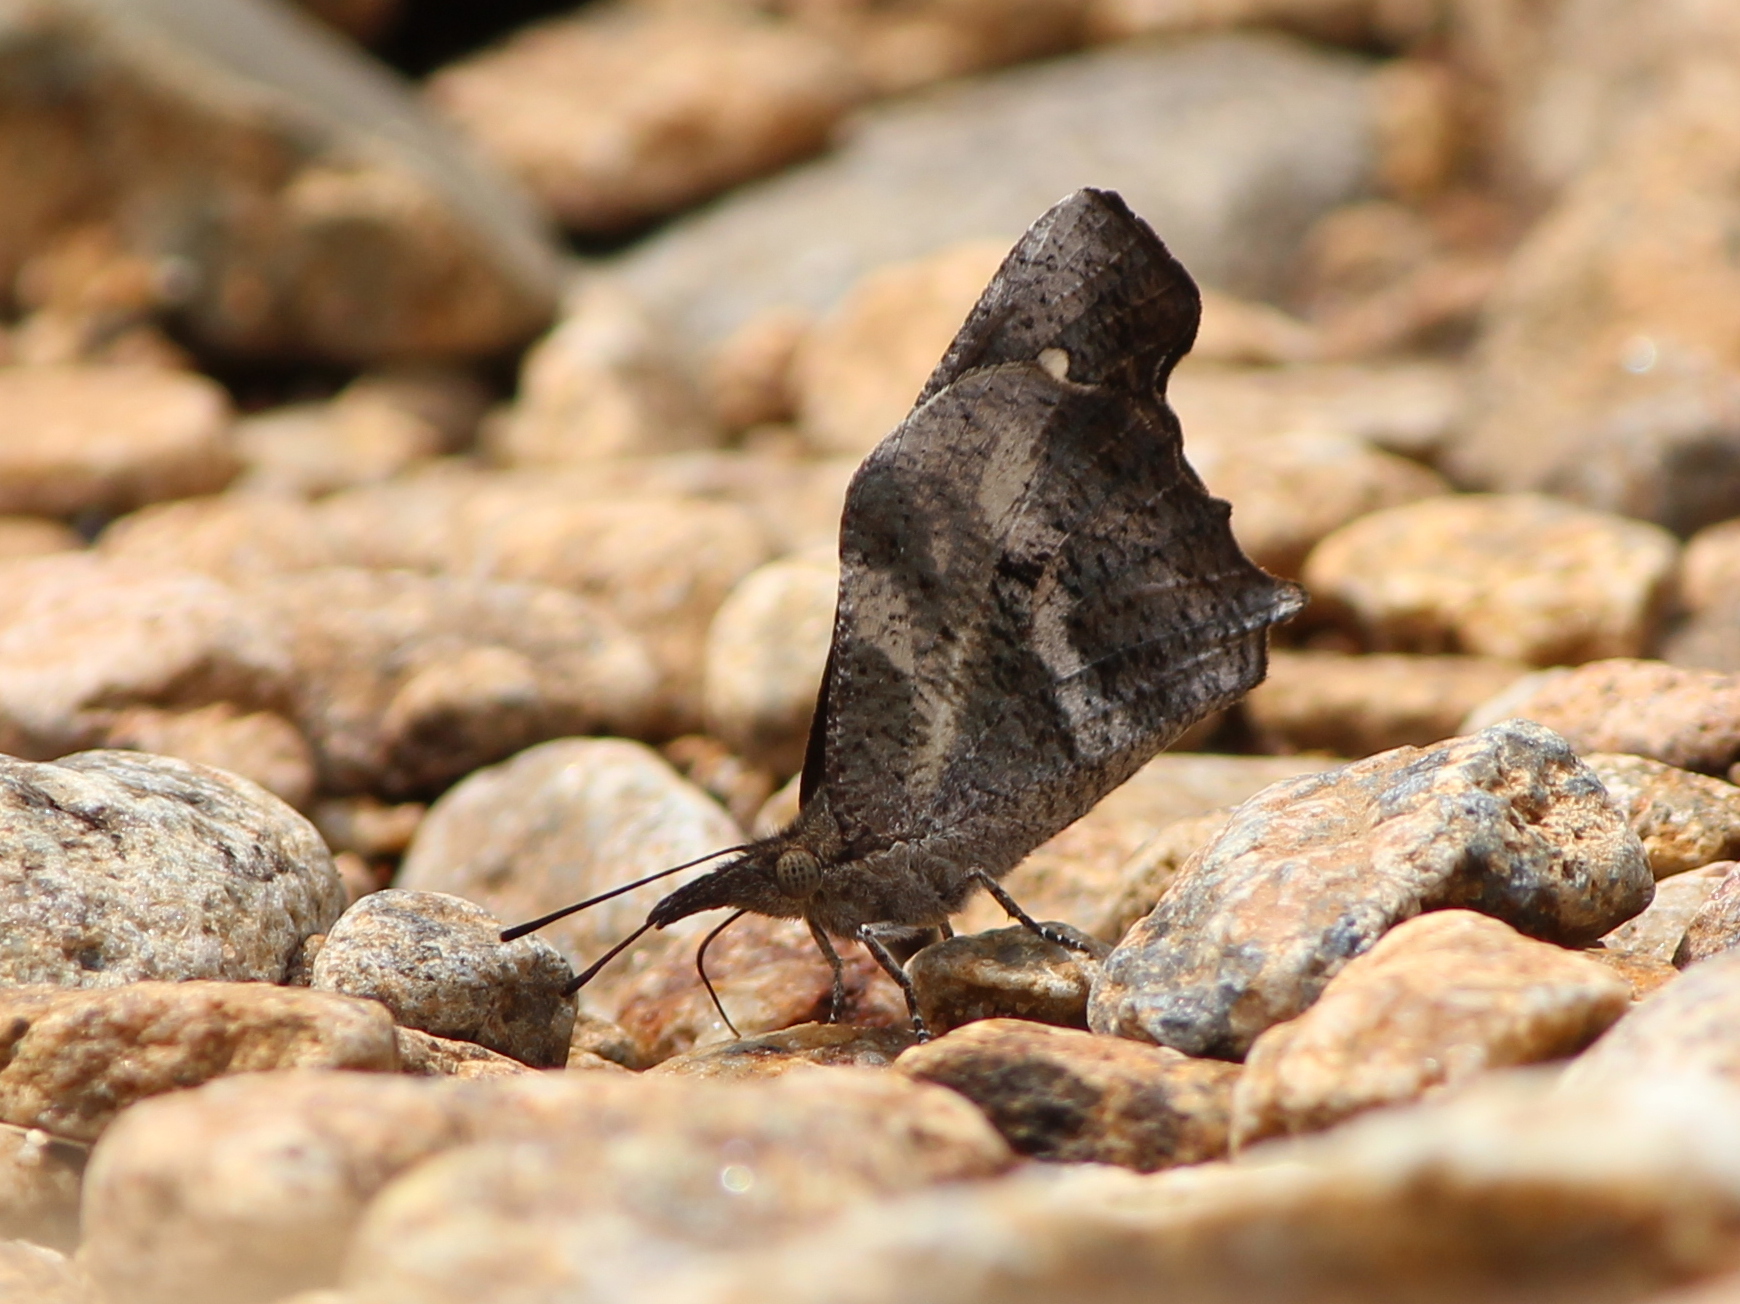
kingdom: Animalia
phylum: Arthropoda
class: Insecta
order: Lepidoptera
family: Nymphalidae
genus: Libythea
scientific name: Libythea laius
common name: African snout
